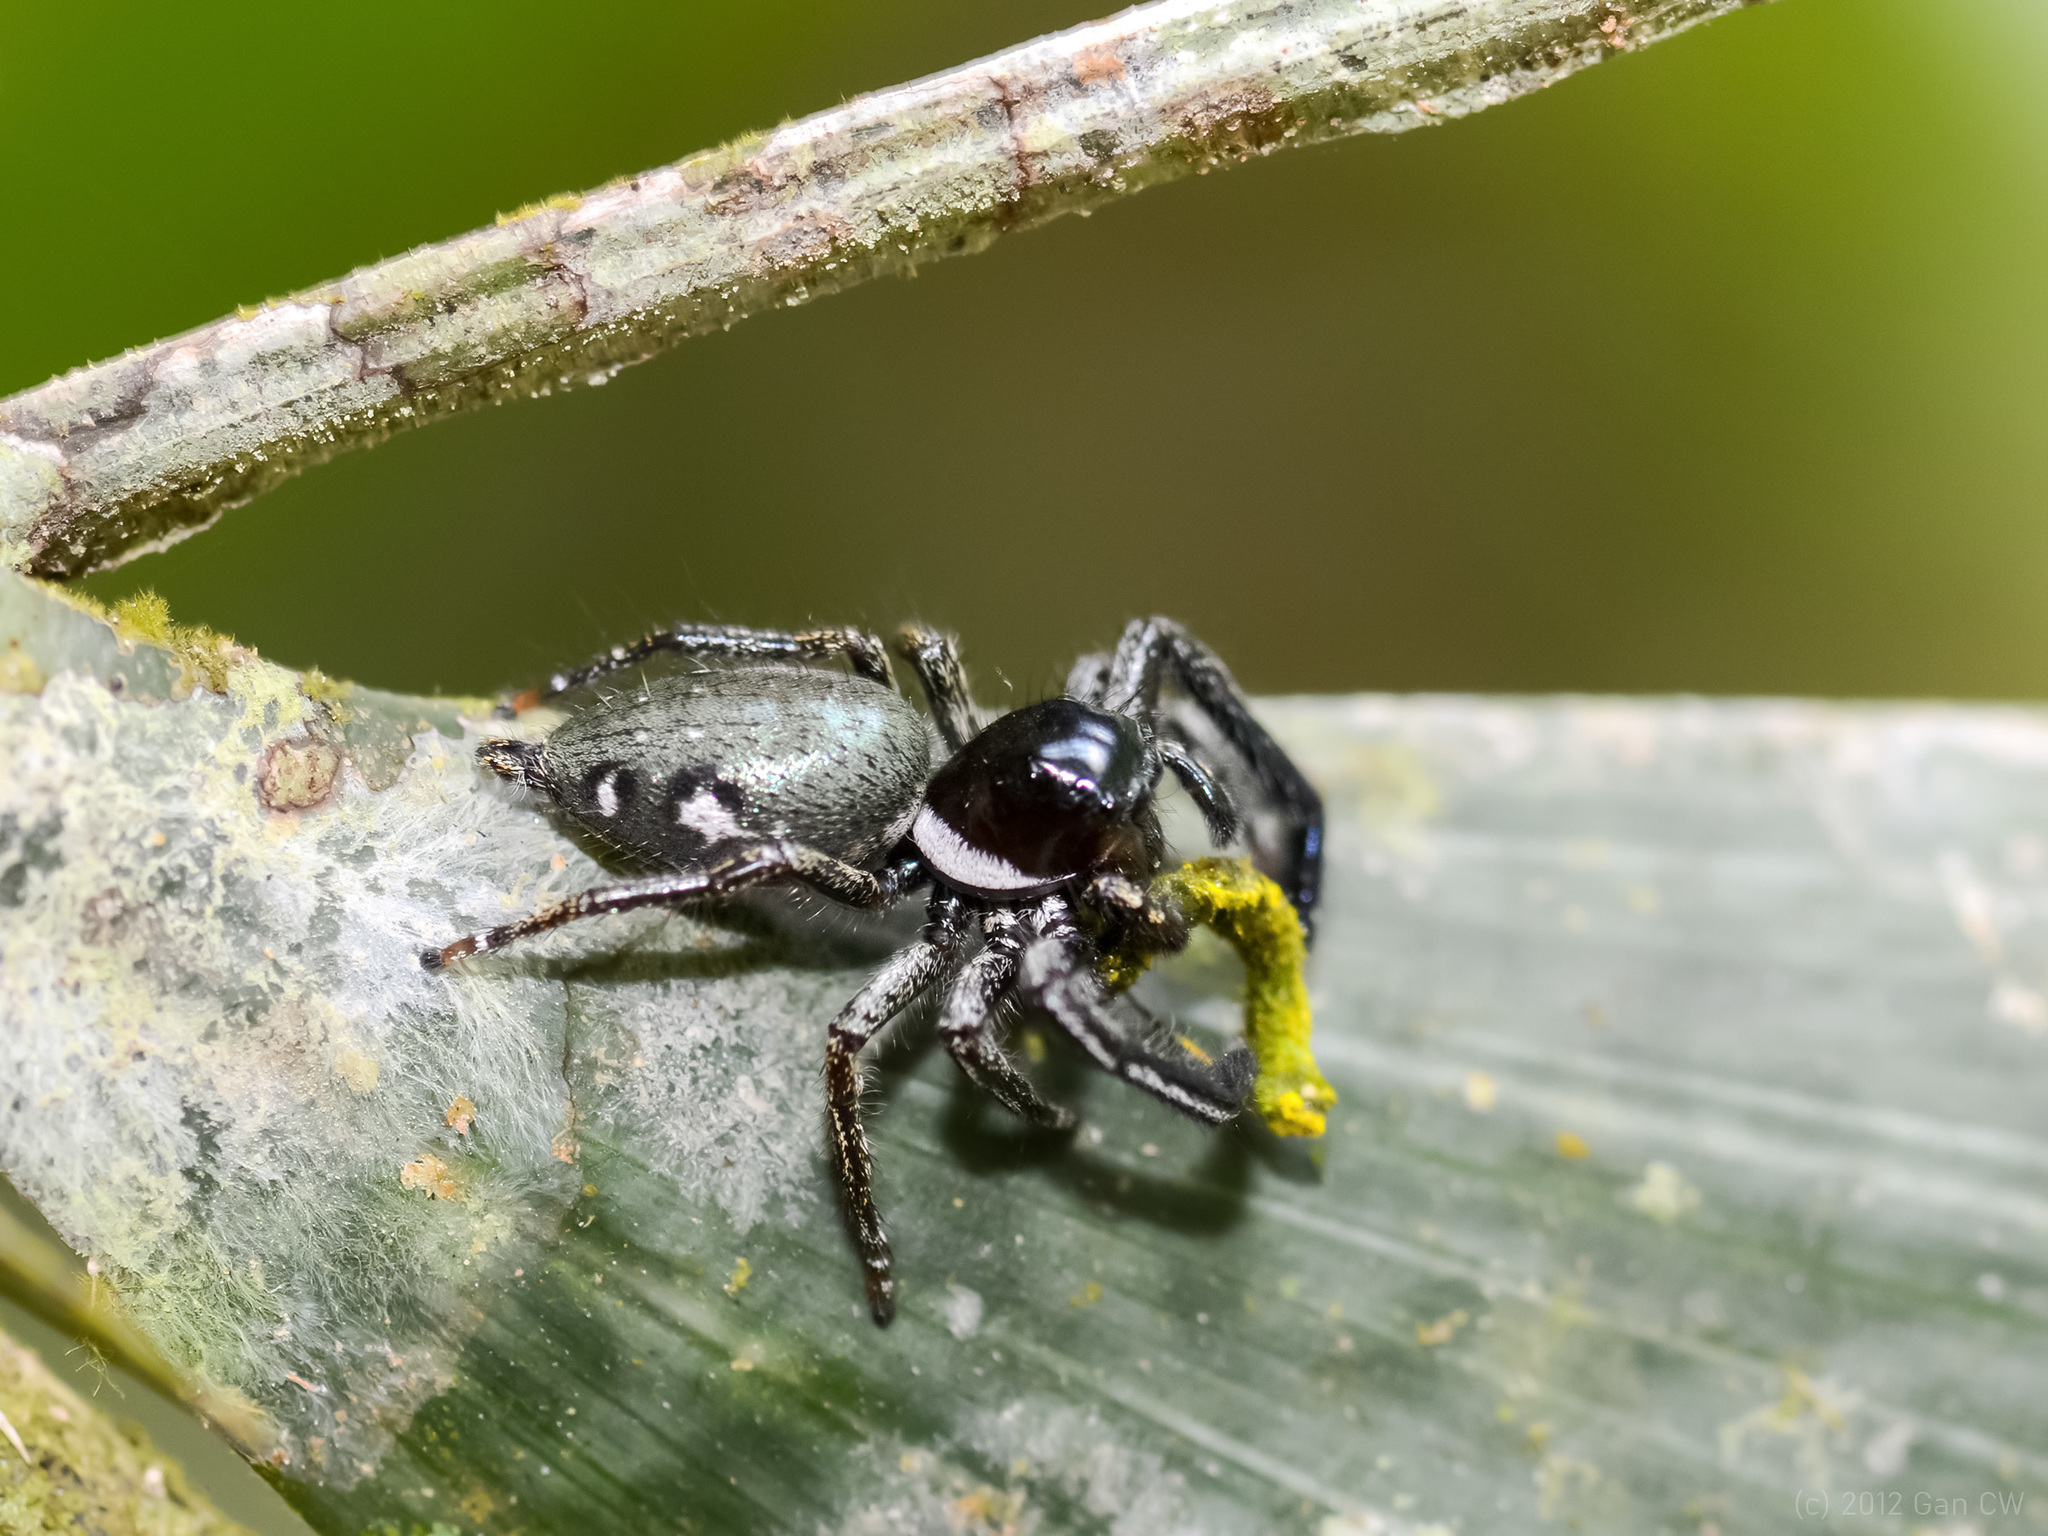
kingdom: Animalia
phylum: Arthropoda
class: Arachnida
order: Araneae
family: Salticidae
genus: Hyllus
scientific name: Hyllus keratodes
